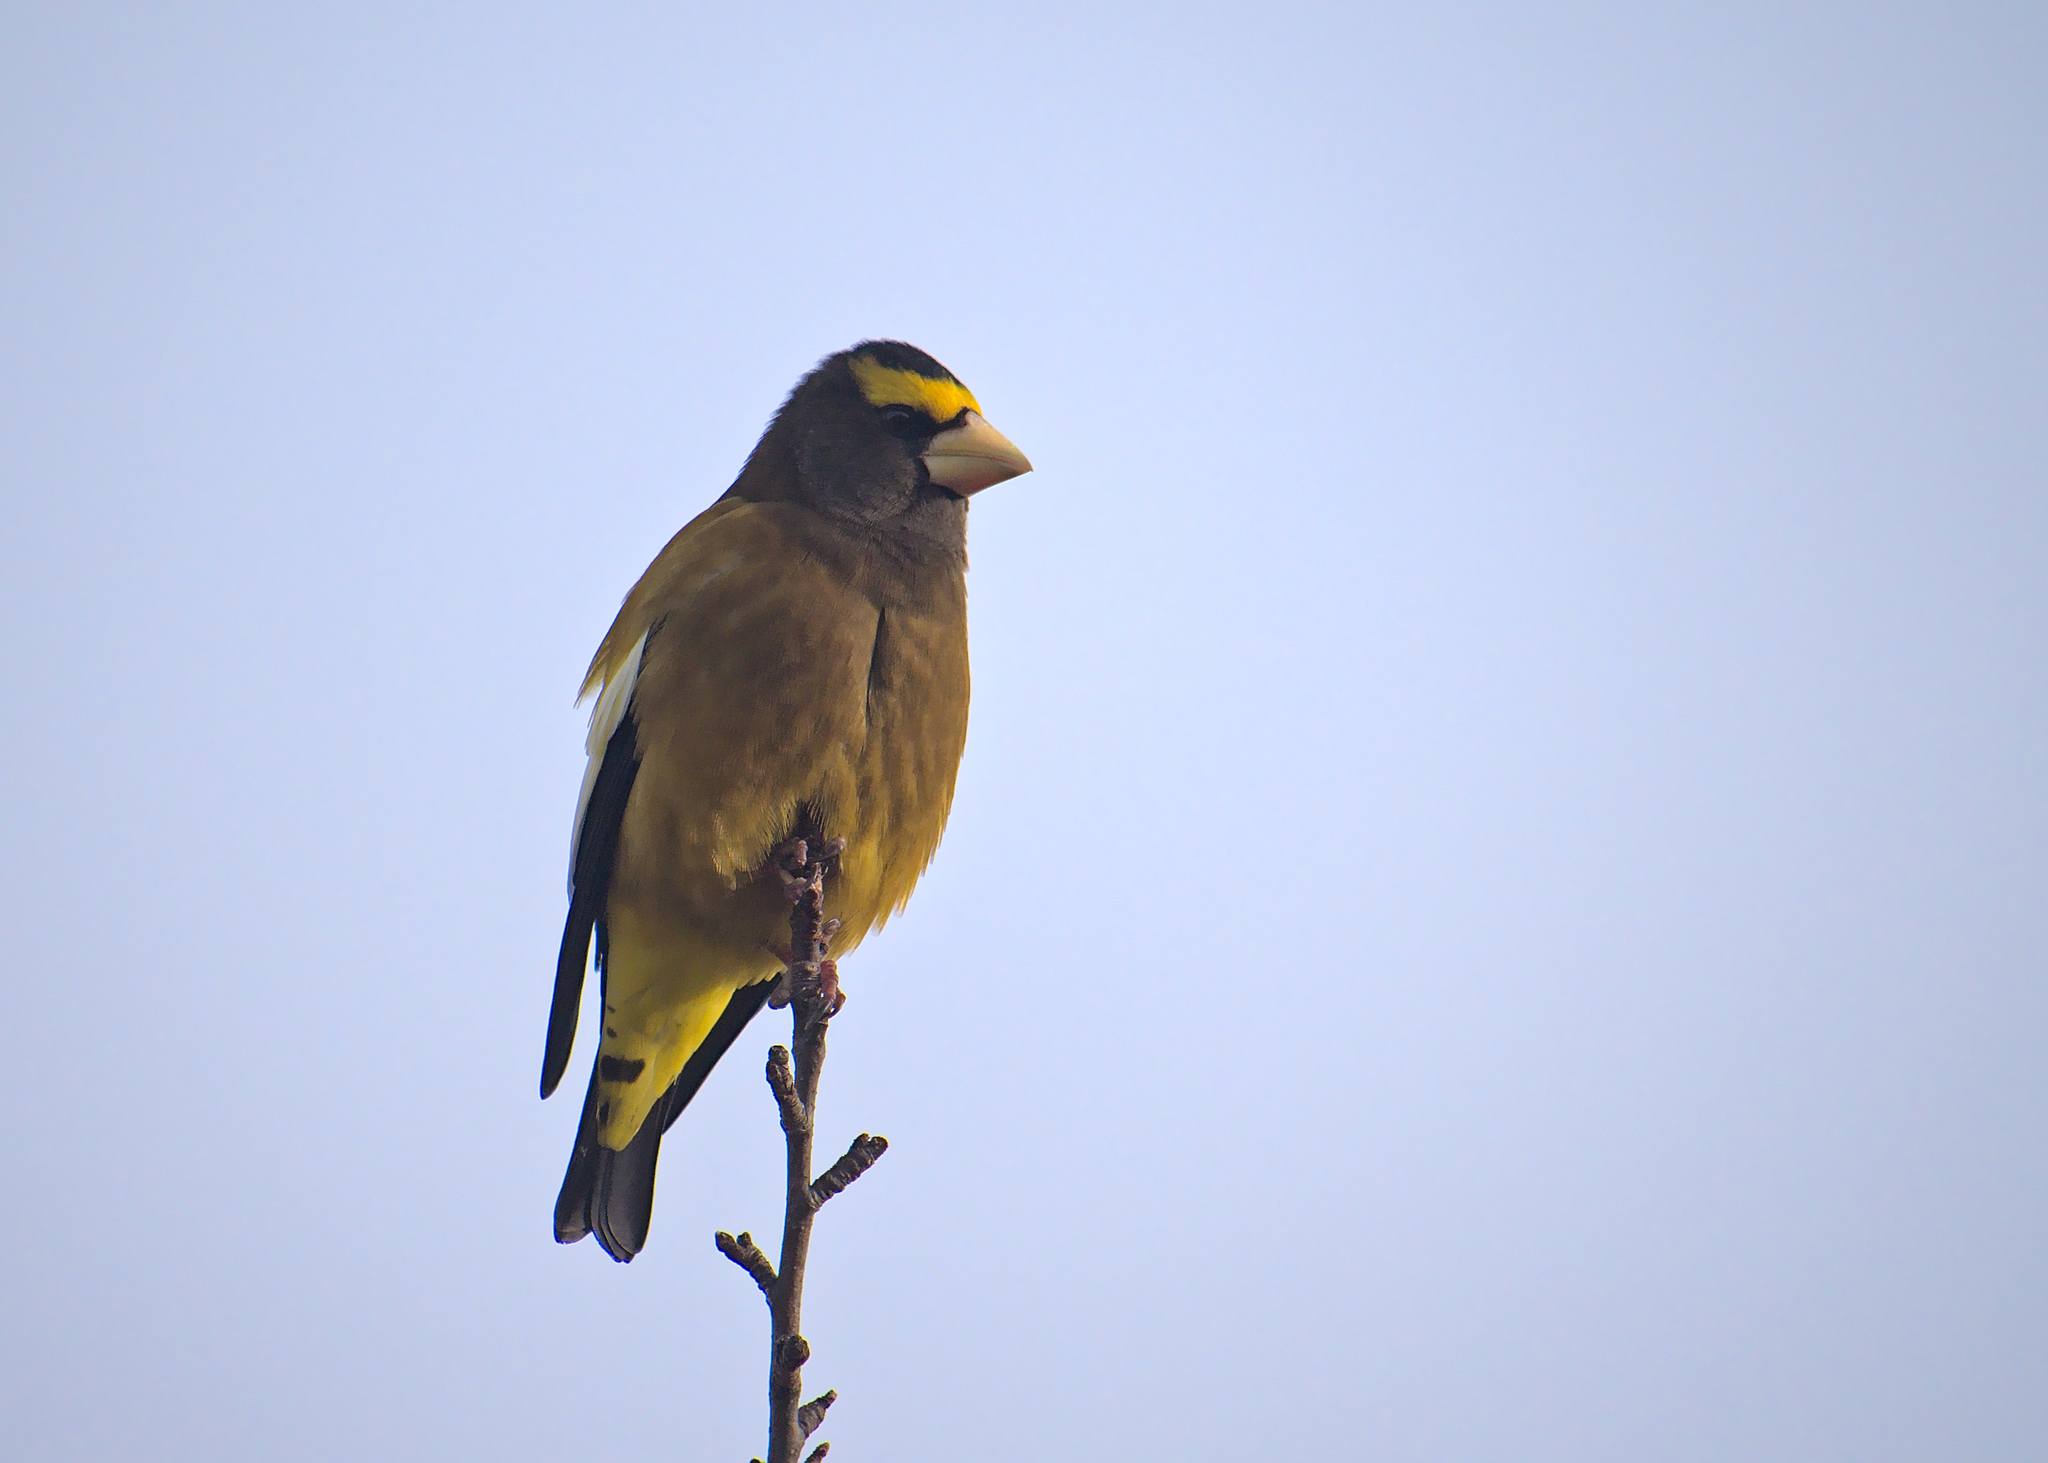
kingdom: Animalia
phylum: Chordata
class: Aves
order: Passeriformes
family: Fringillidae
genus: Hesperiphona
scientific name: Hesperiphona vespertina
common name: Evening grosbeak
